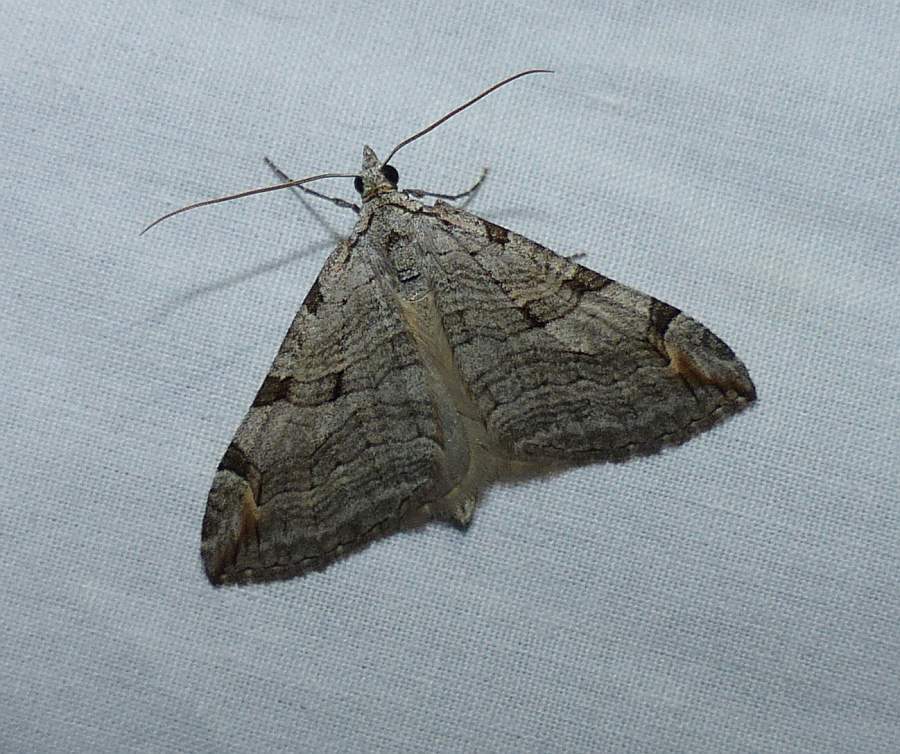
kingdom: Animalia
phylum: Arthropoda
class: Insecta
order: Lepidoptera
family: Geometridae
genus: Aplocera
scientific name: Aplocera plagiata
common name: Treble-bar
